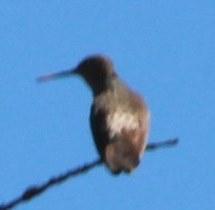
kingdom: Animalia
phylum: Chordata
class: Aves
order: Apodiformes
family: Trochilidae
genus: Patagona
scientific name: Patagona gigas
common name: Giant hummingbird
